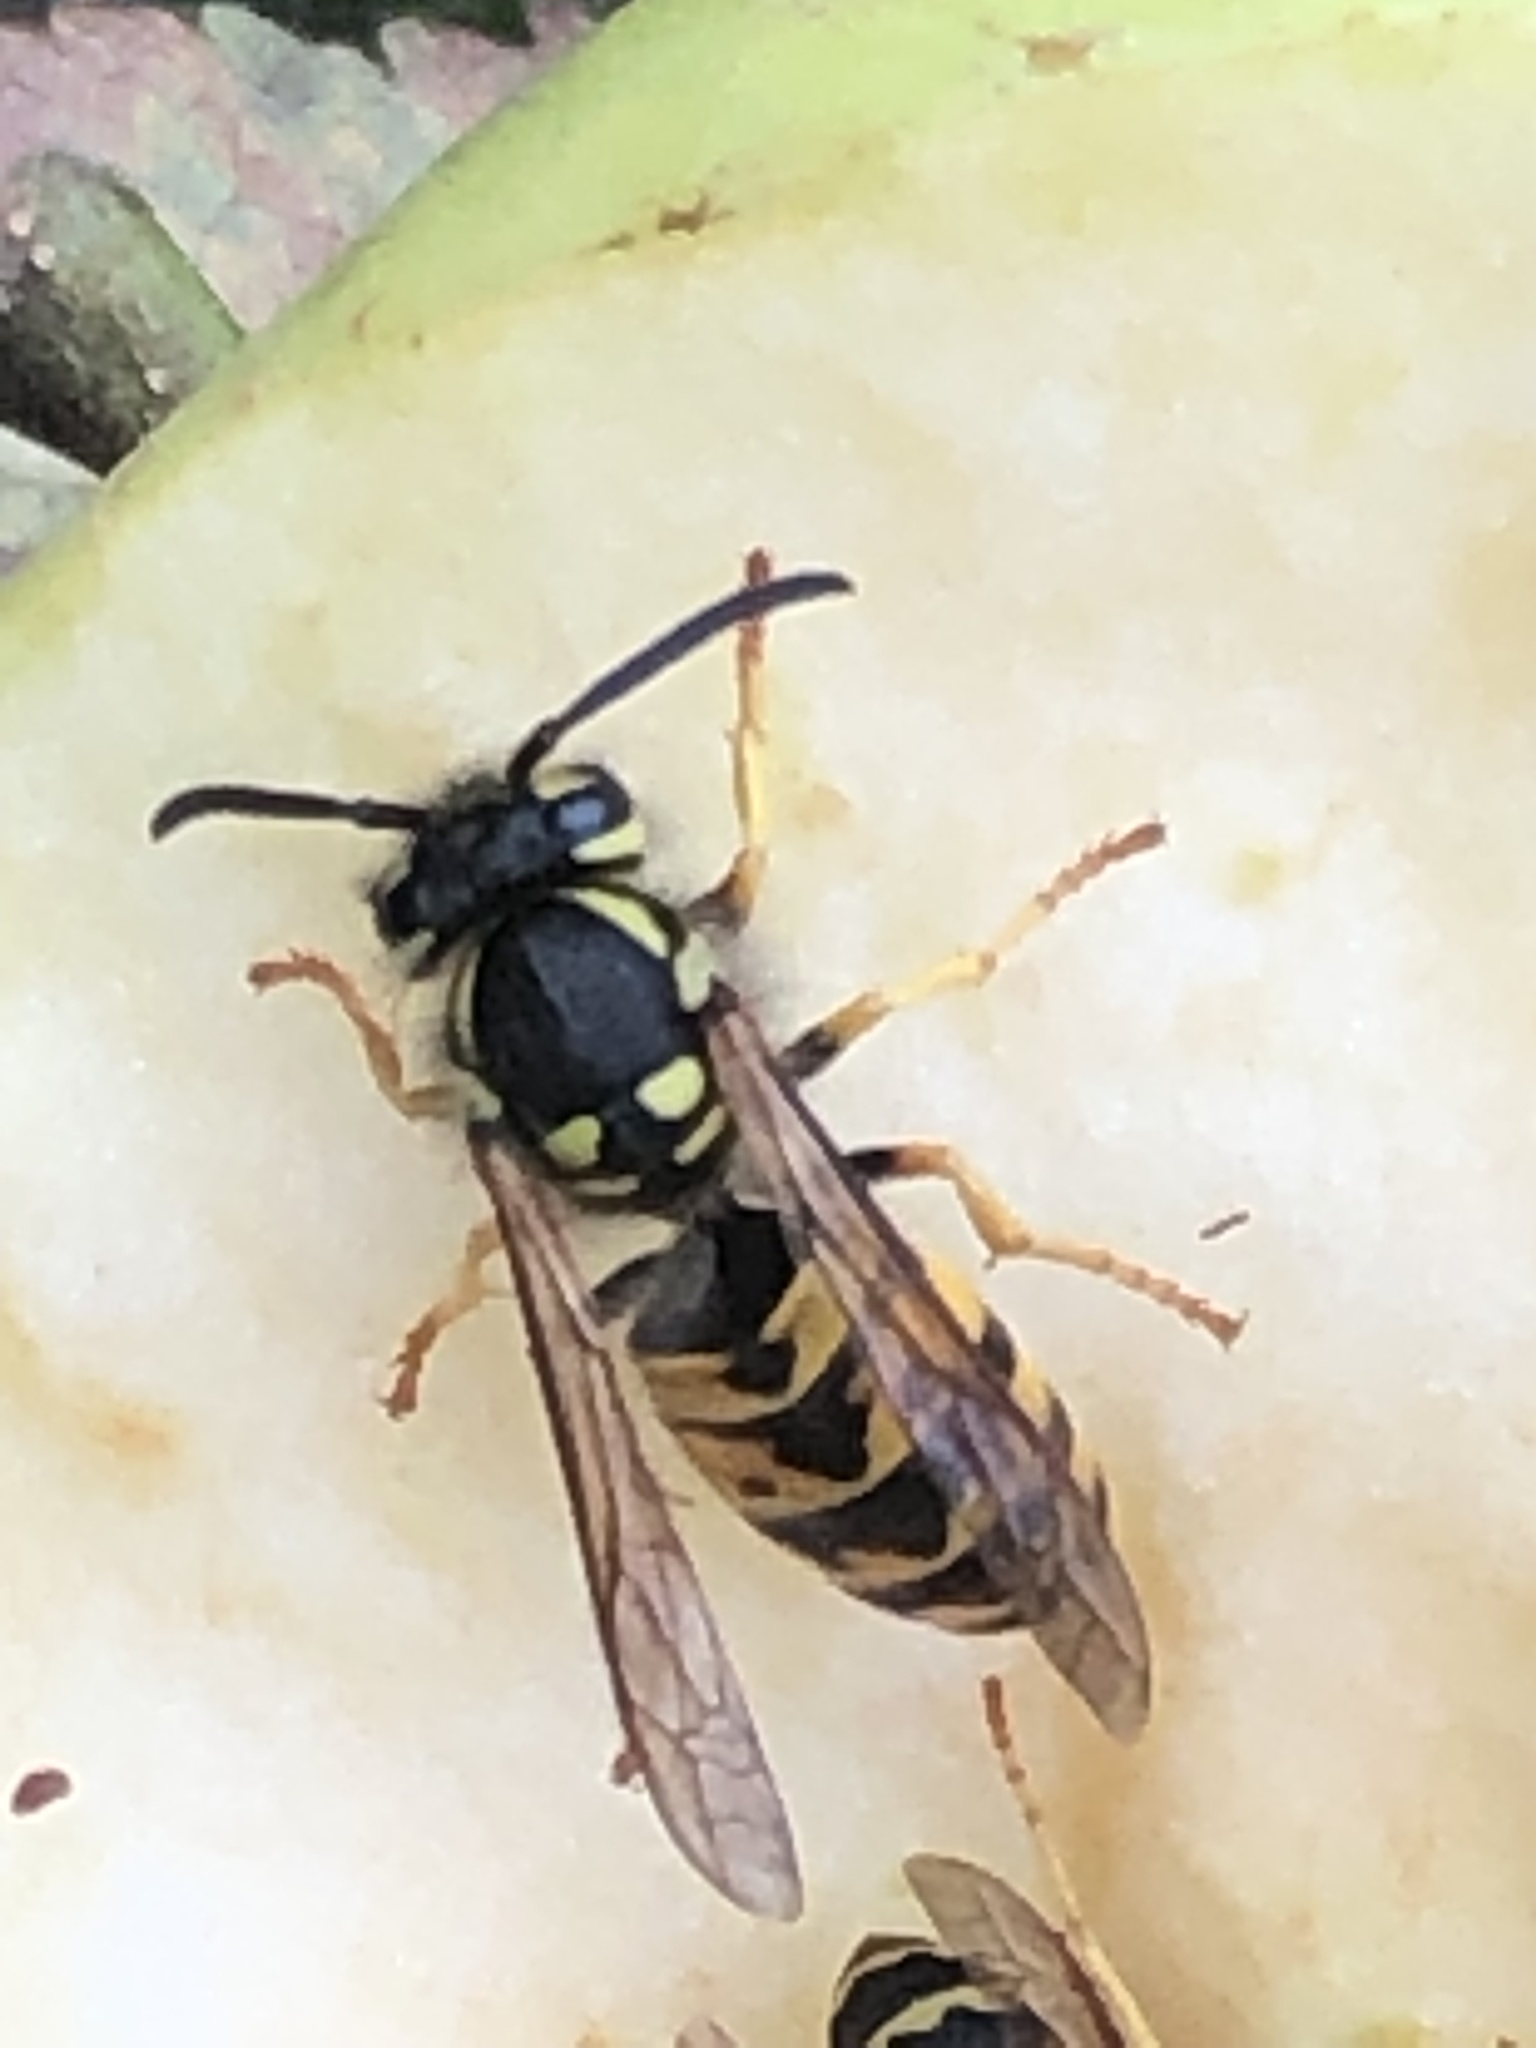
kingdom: Animalia
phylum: Arthropoda
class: Insecta
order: Hymenoptera
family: Vespidae
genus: Vespula
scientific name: Vespula germanica
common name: German wasp
